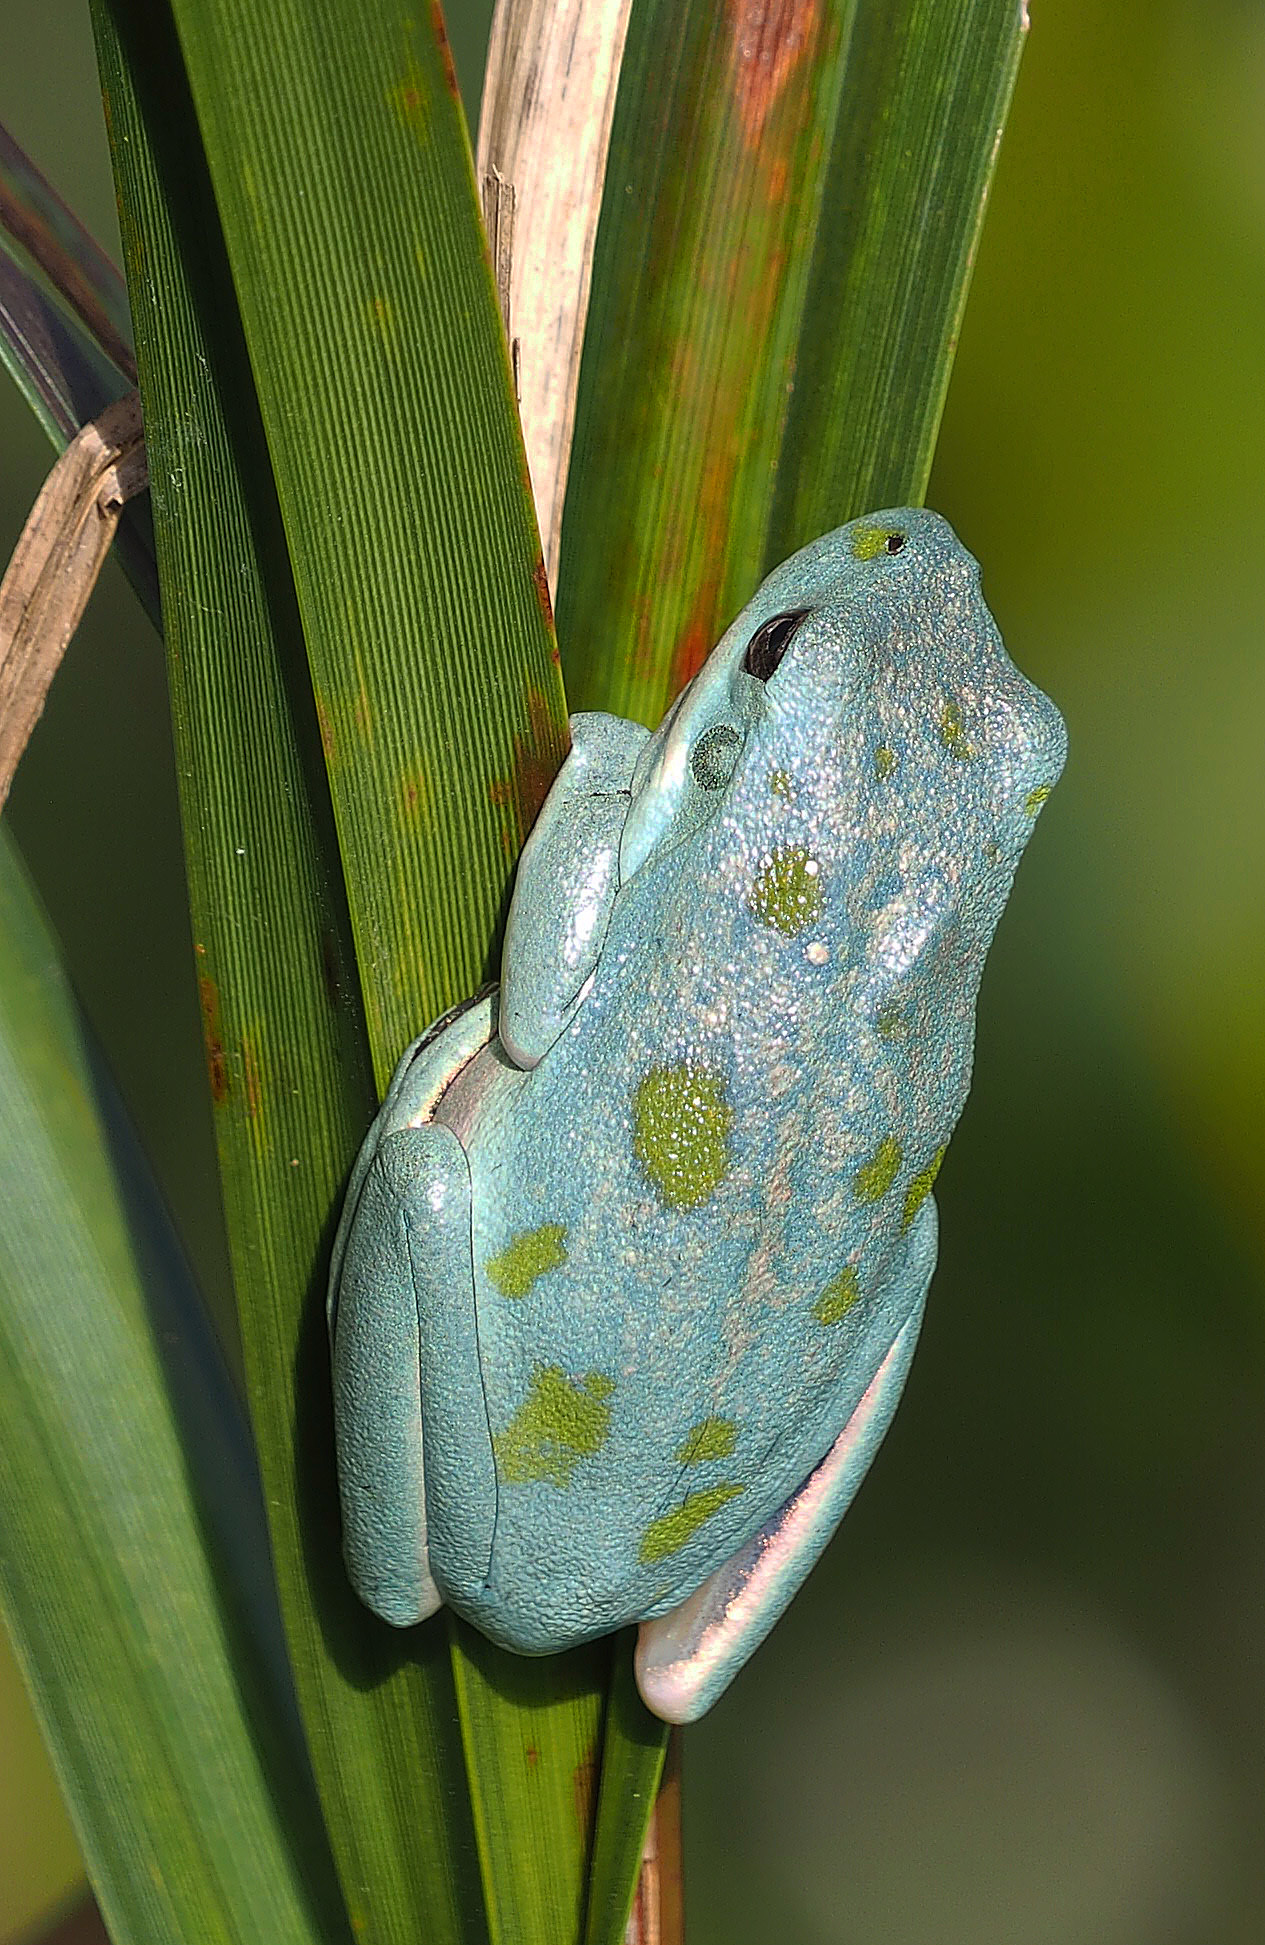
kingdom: Animalia
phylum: Chordata
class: Amphibia
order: Anura
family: Hylidae
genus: Dryophytes
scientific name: Dryophytes cinereus
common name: Green treefrog
